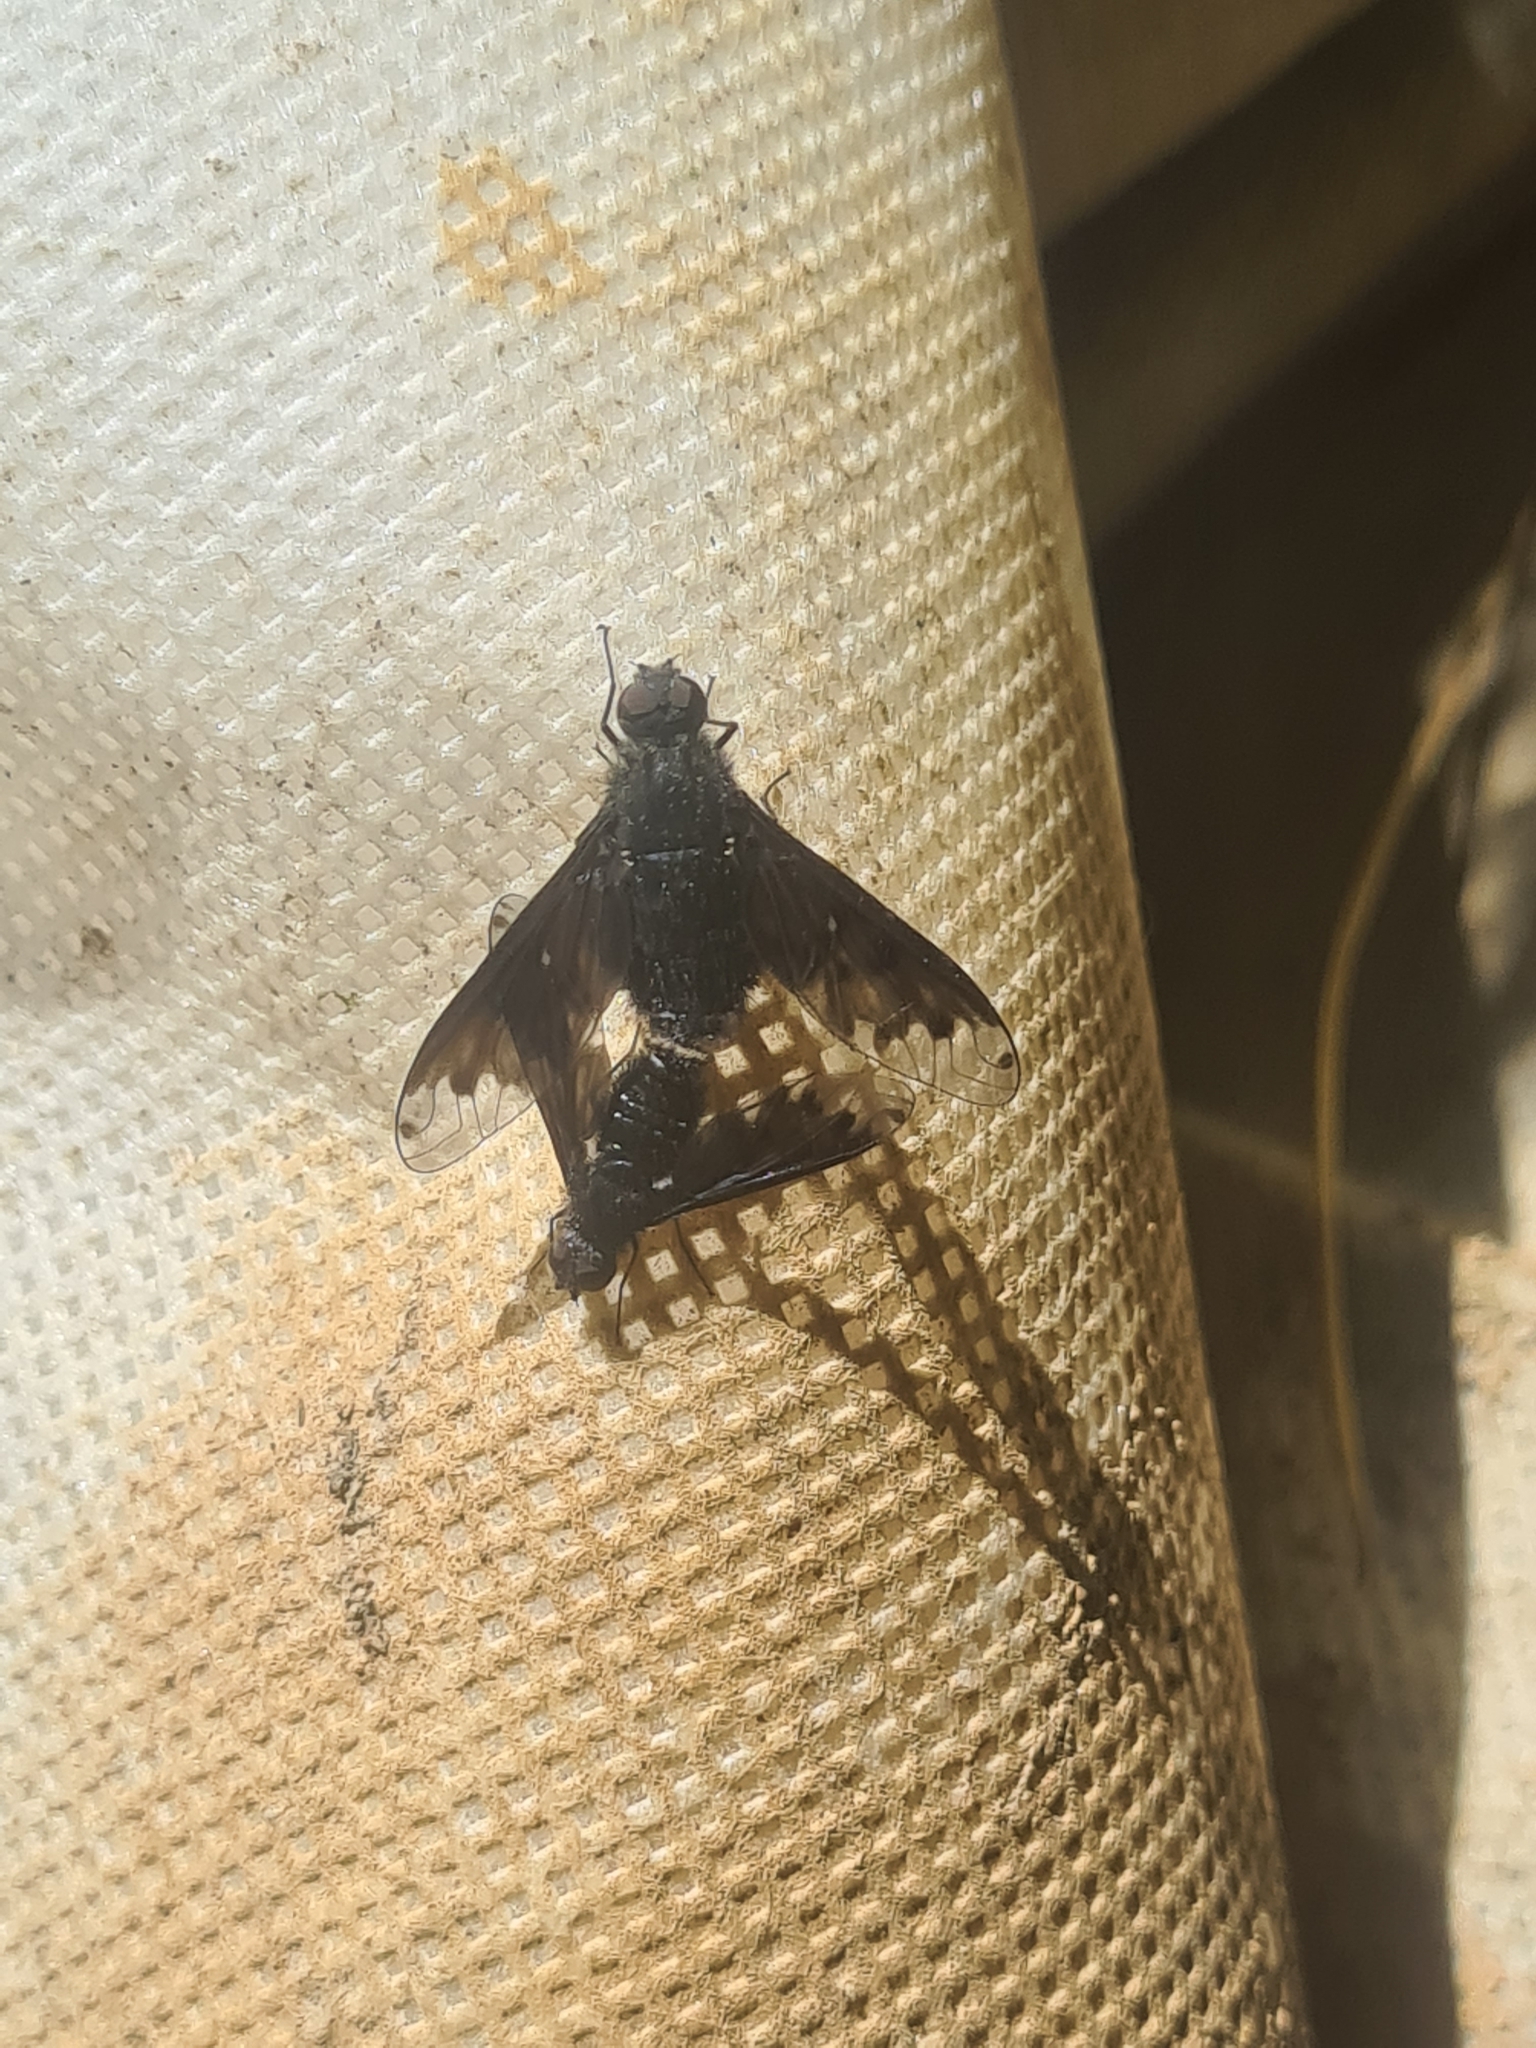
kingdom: Animalia
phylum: Arthropoda
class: Insecta
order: Diptera
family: Bombyliidae
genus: Anthrax
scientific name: Anthrax anthrax
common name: Anthracite bee-fly
